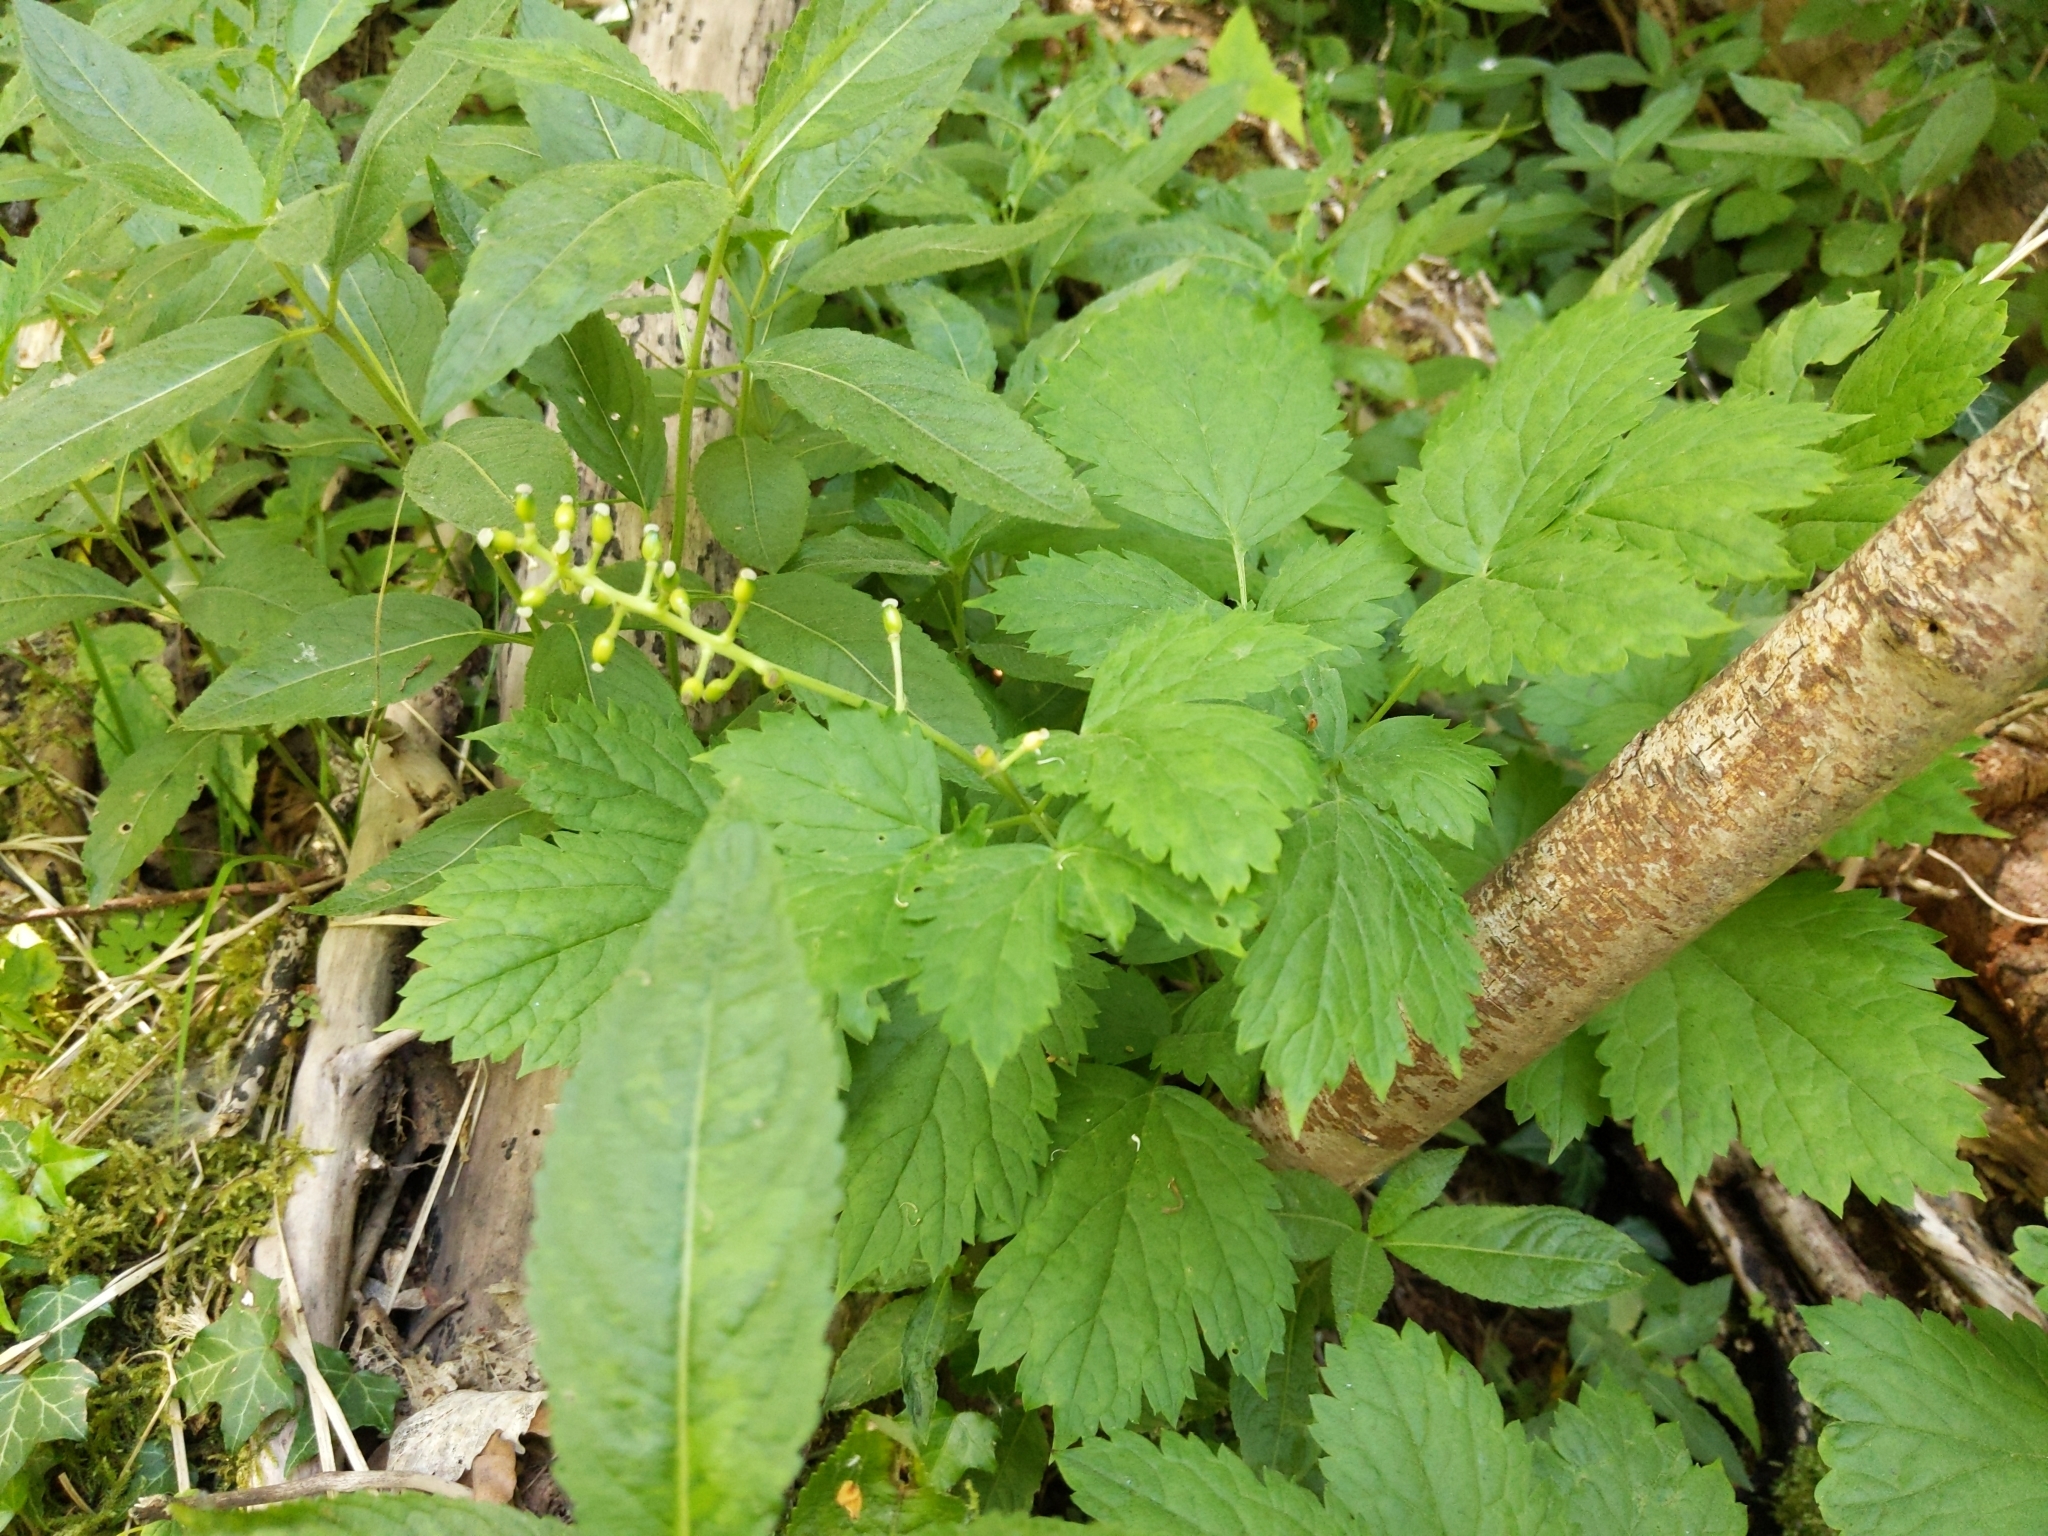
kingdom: Plantae
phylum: Tracheophyta
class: Magnoliopsida
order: Ranunculales
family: Ranunculaceae
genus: Actaea
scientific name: Actaea spicata
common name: Baneberry
